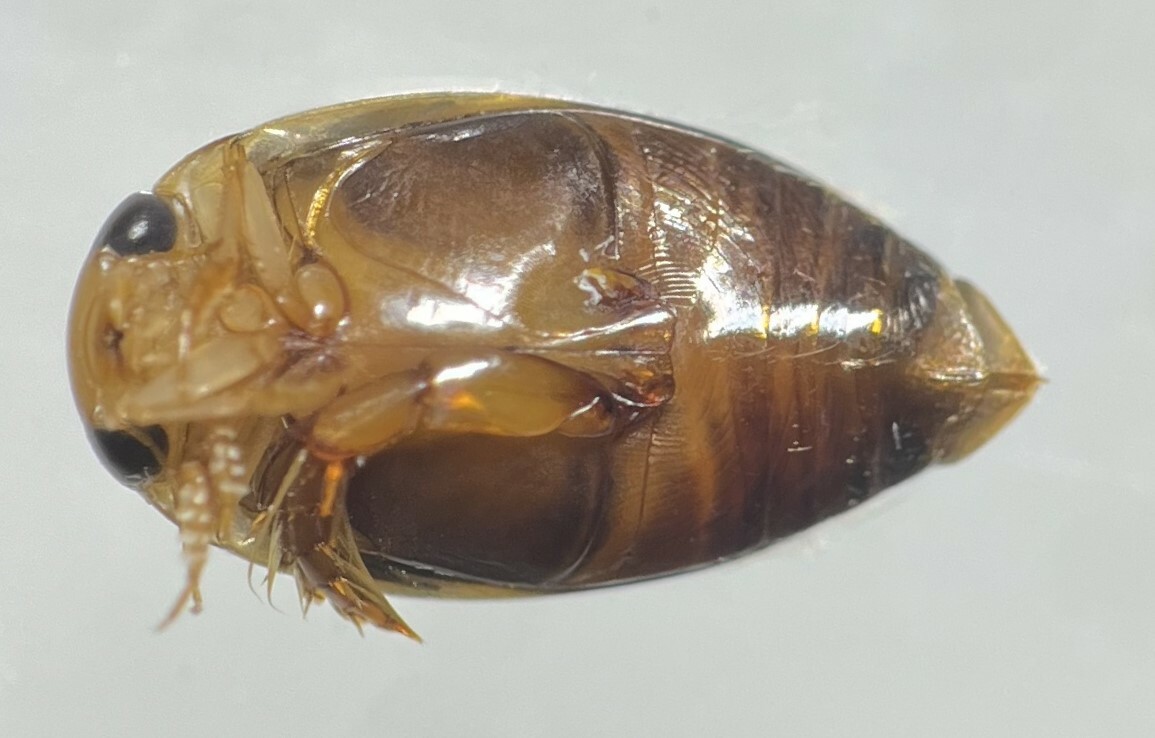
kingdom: Animalia
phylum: Arthropoda
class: Insecta
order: Coleoptera
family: Dytiscidae
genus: Laccophilus
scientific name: Laccophilus proximus
